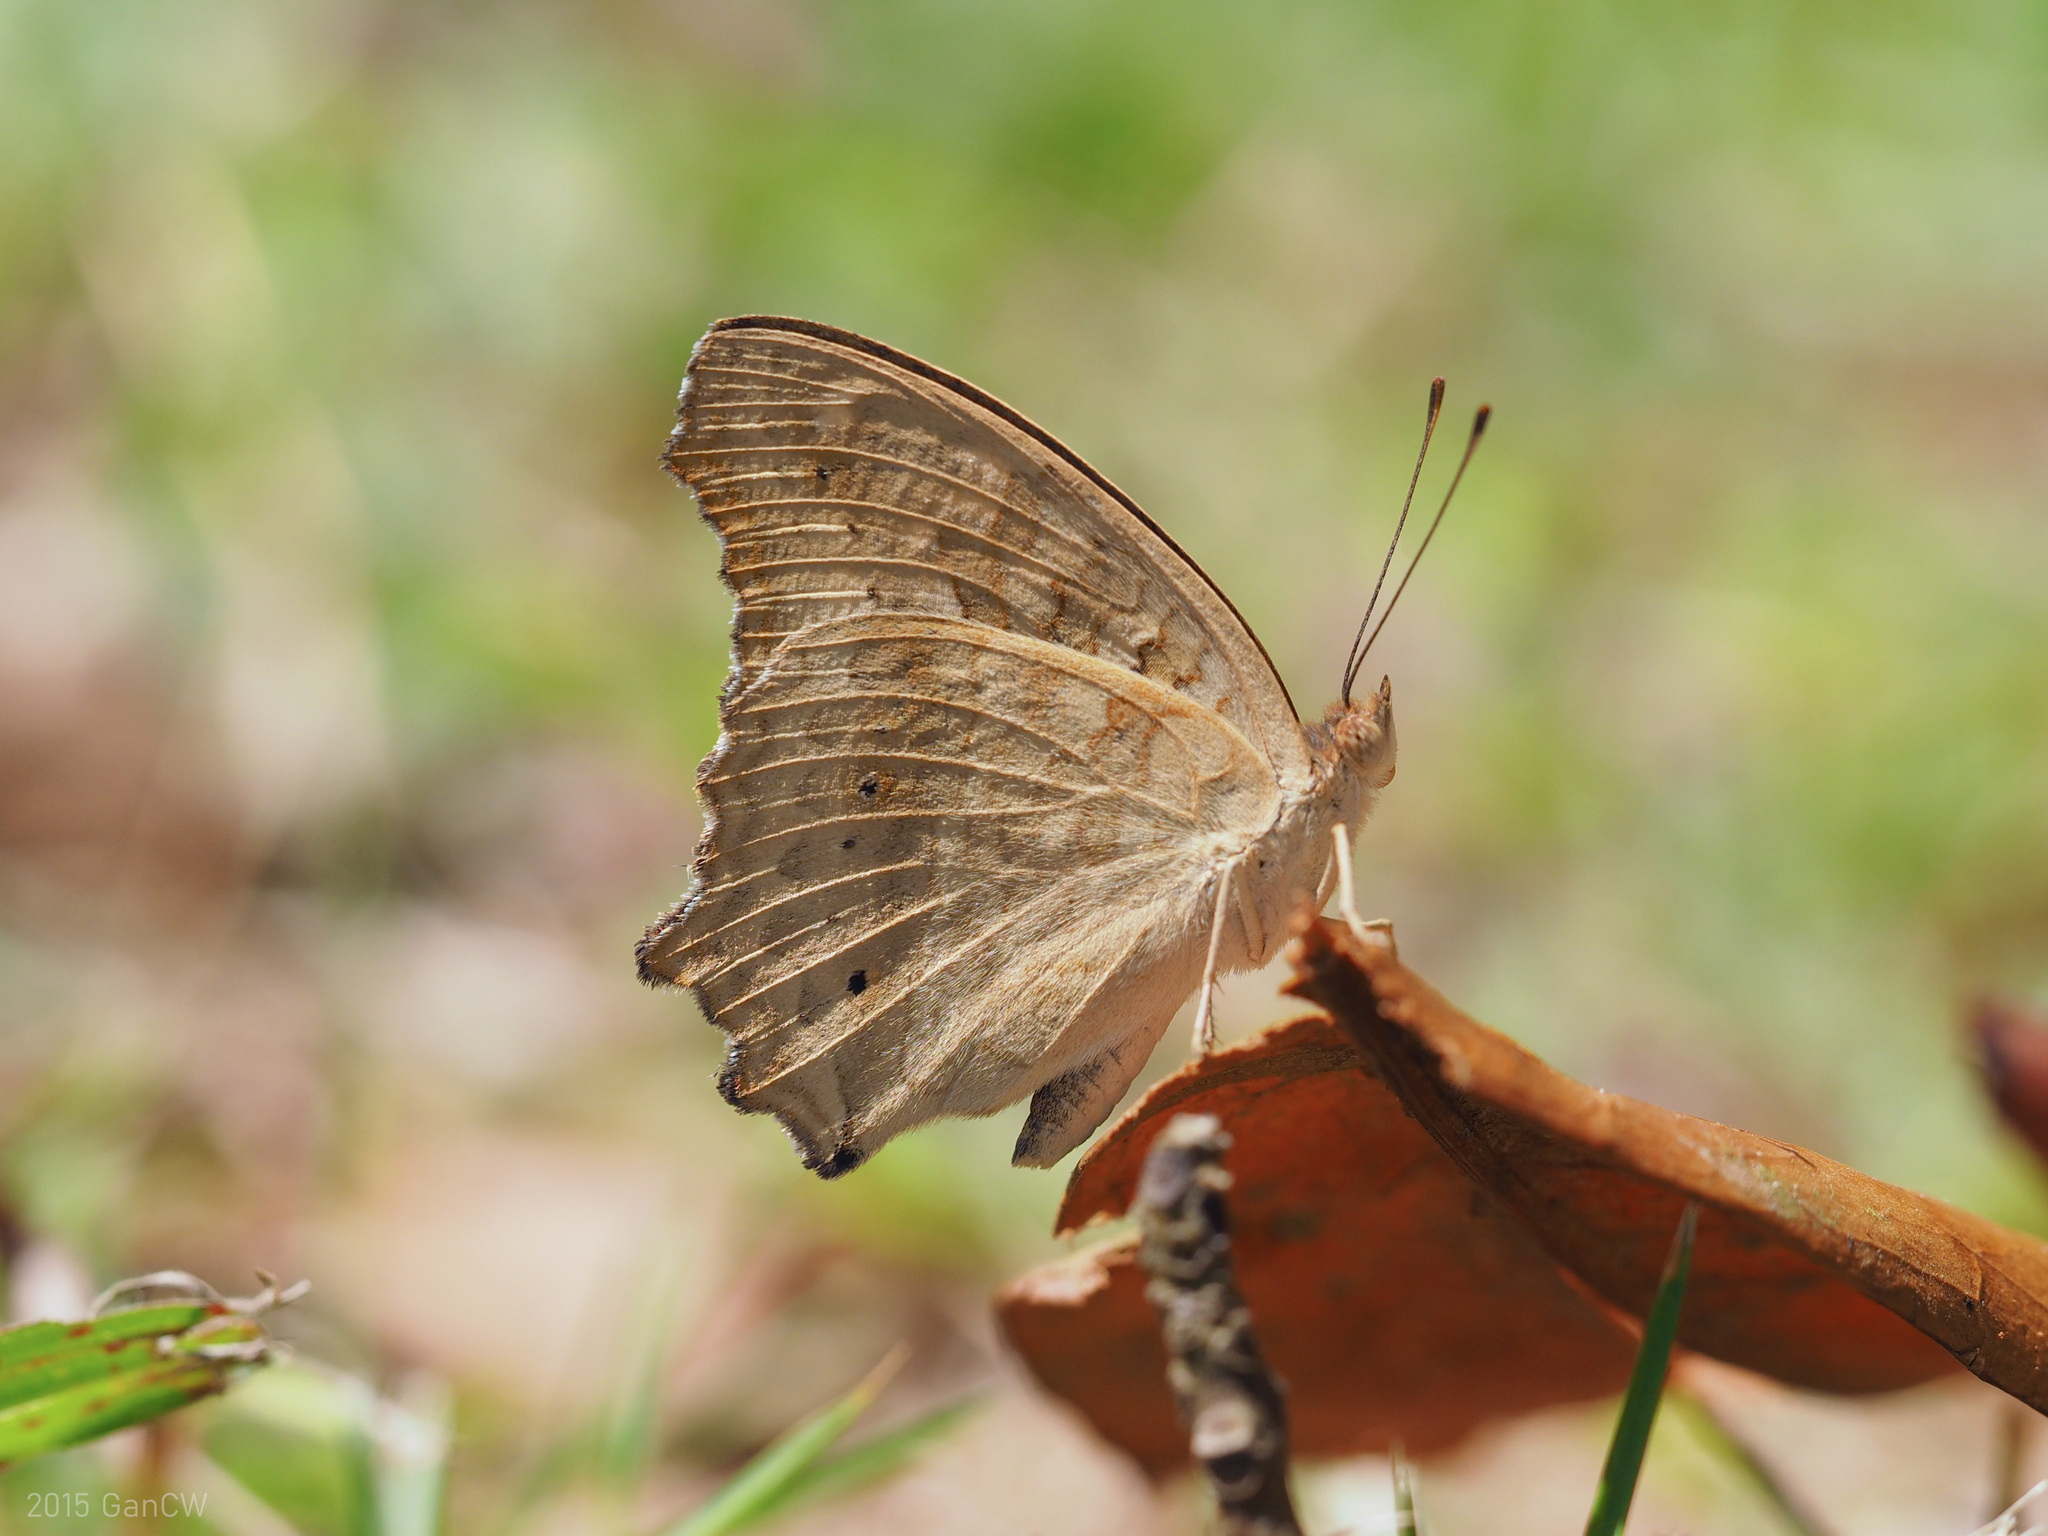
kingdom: Animalia
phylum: Arthropoda
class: Insecta
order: Lepidoptera
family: Nymphalidae
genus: Junonia
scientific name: Junonia lemonias
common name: Lemon pansy
